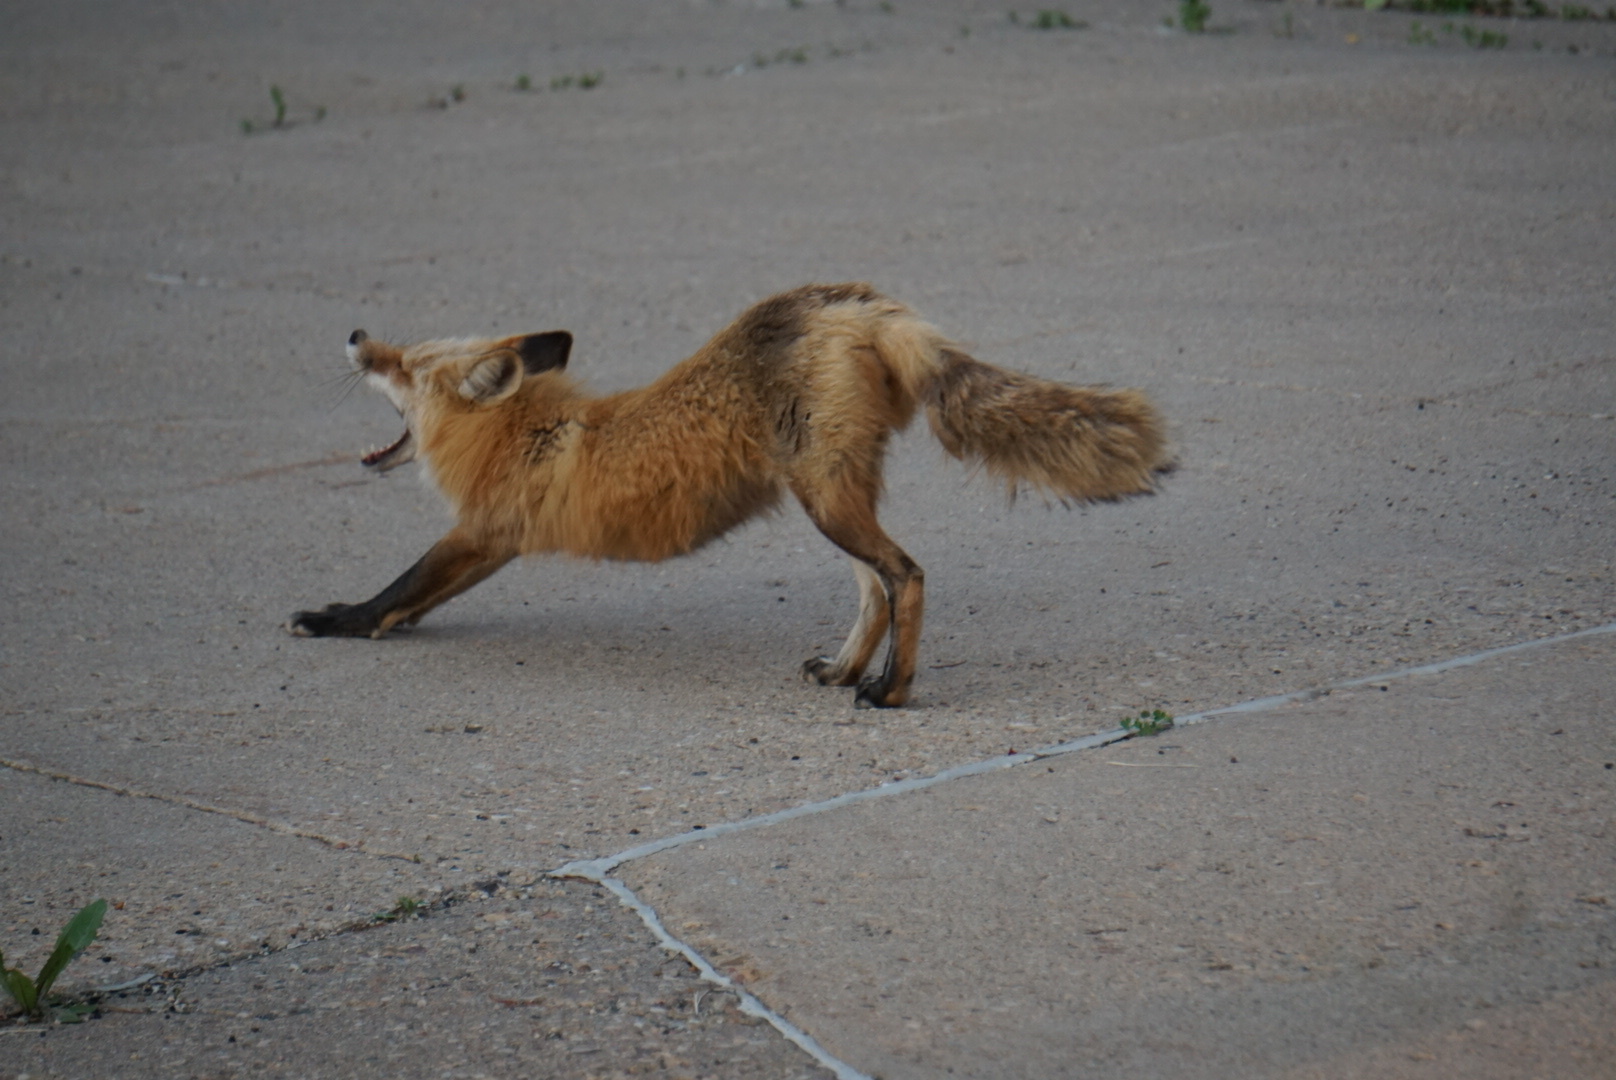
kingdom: Animalia
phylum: Chordata
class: Mammalia
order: Carnivora
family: Canidae
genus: Vulpes
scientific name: Vulpes vulpes
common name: Red fox
